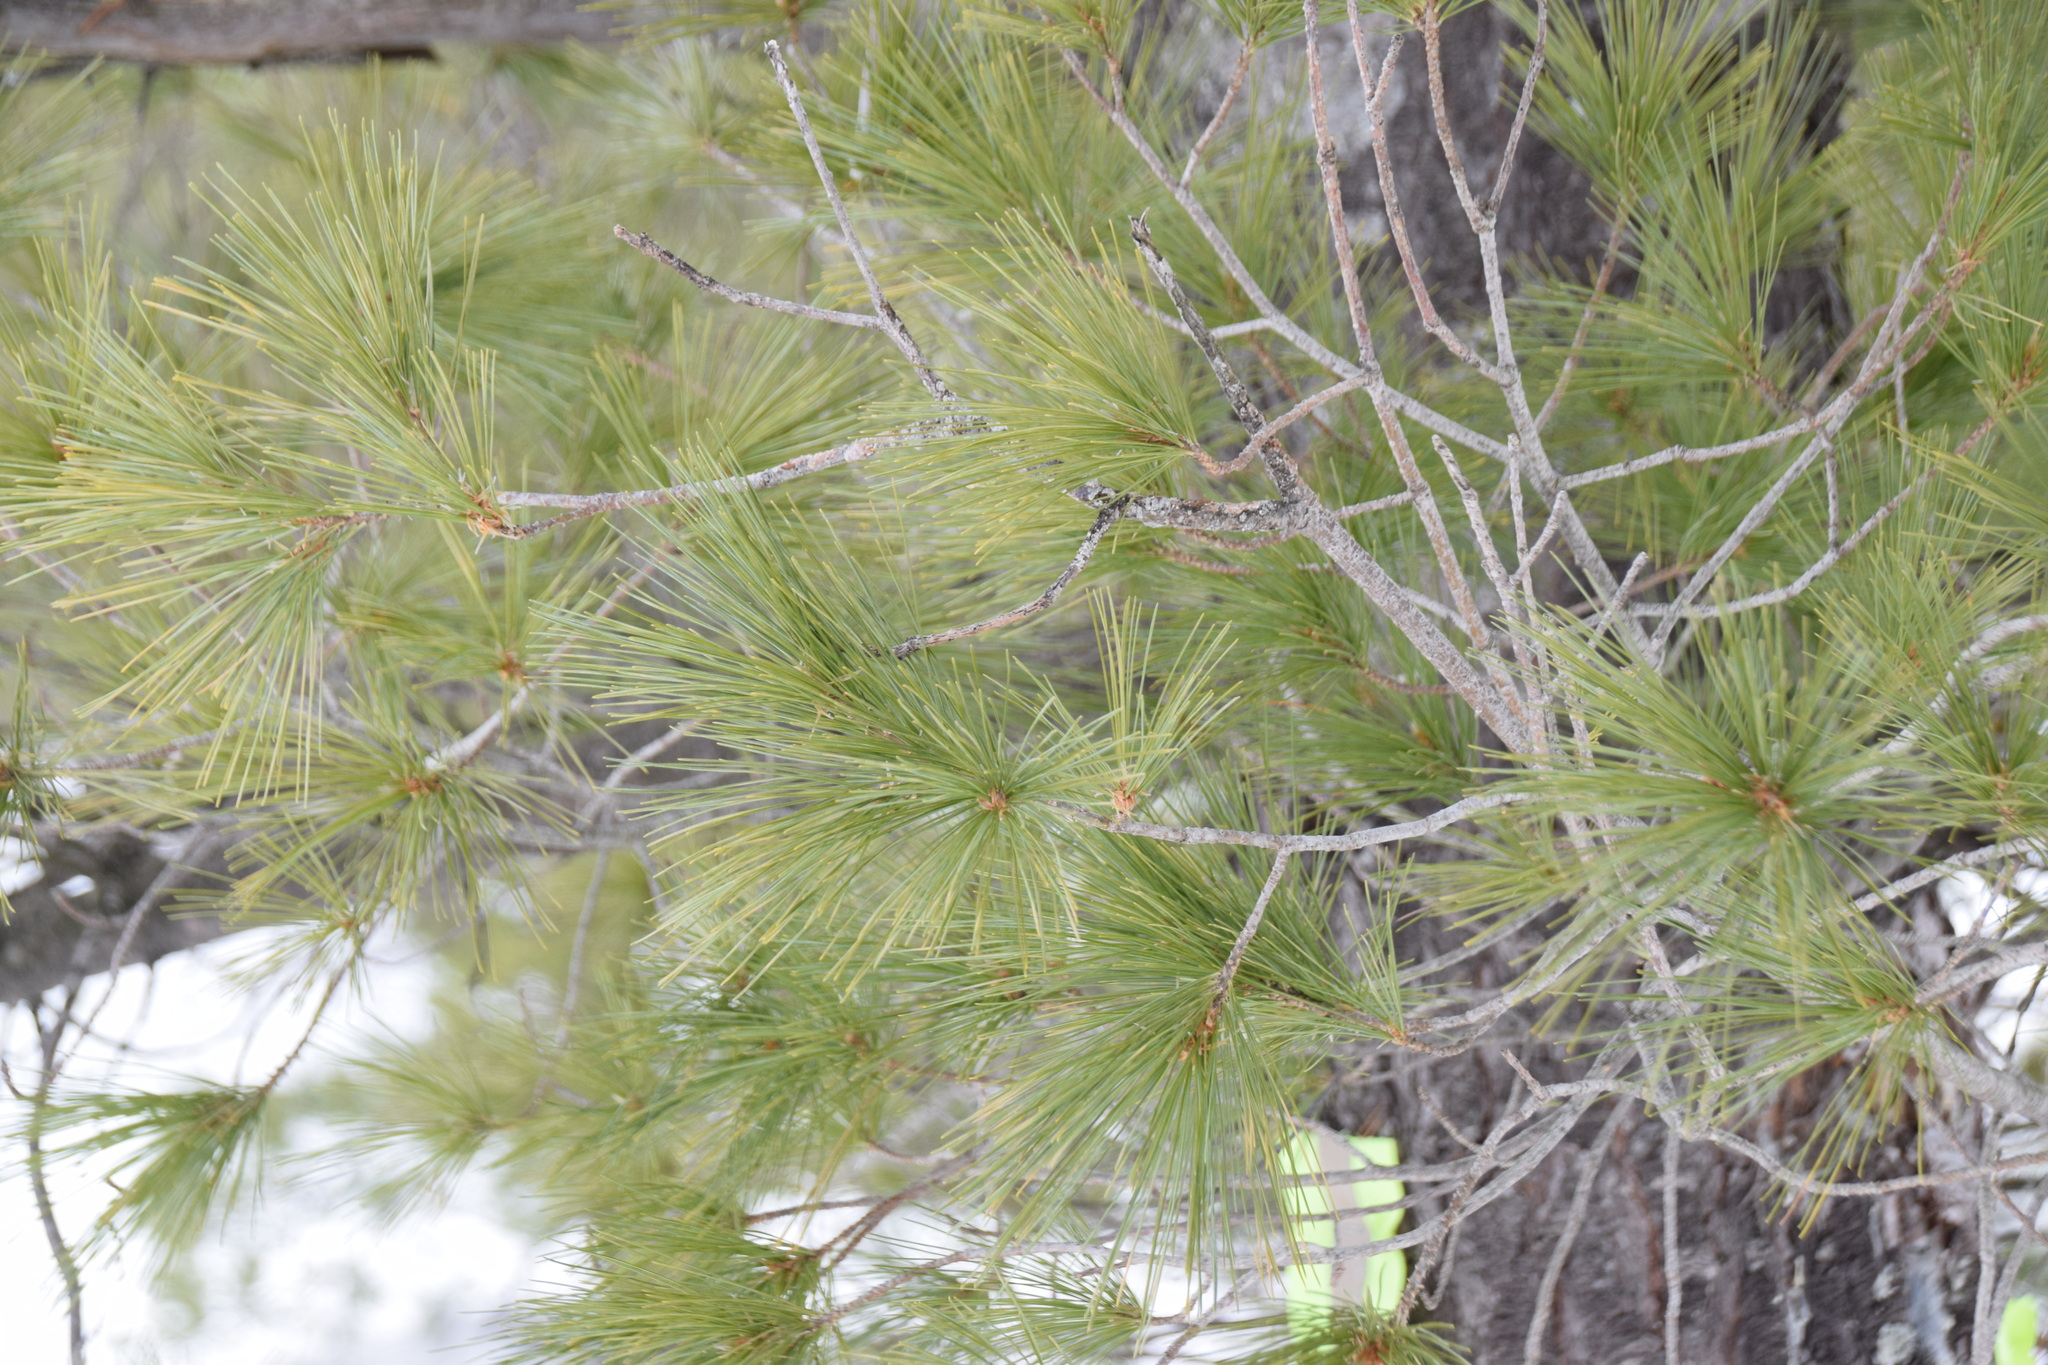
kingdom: Plantae
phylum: Tracheophyta
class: Pinopsida
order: Pinales
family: Pinaceae
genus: Pinus
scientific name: Pinus strobus
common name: Weymouth pine
